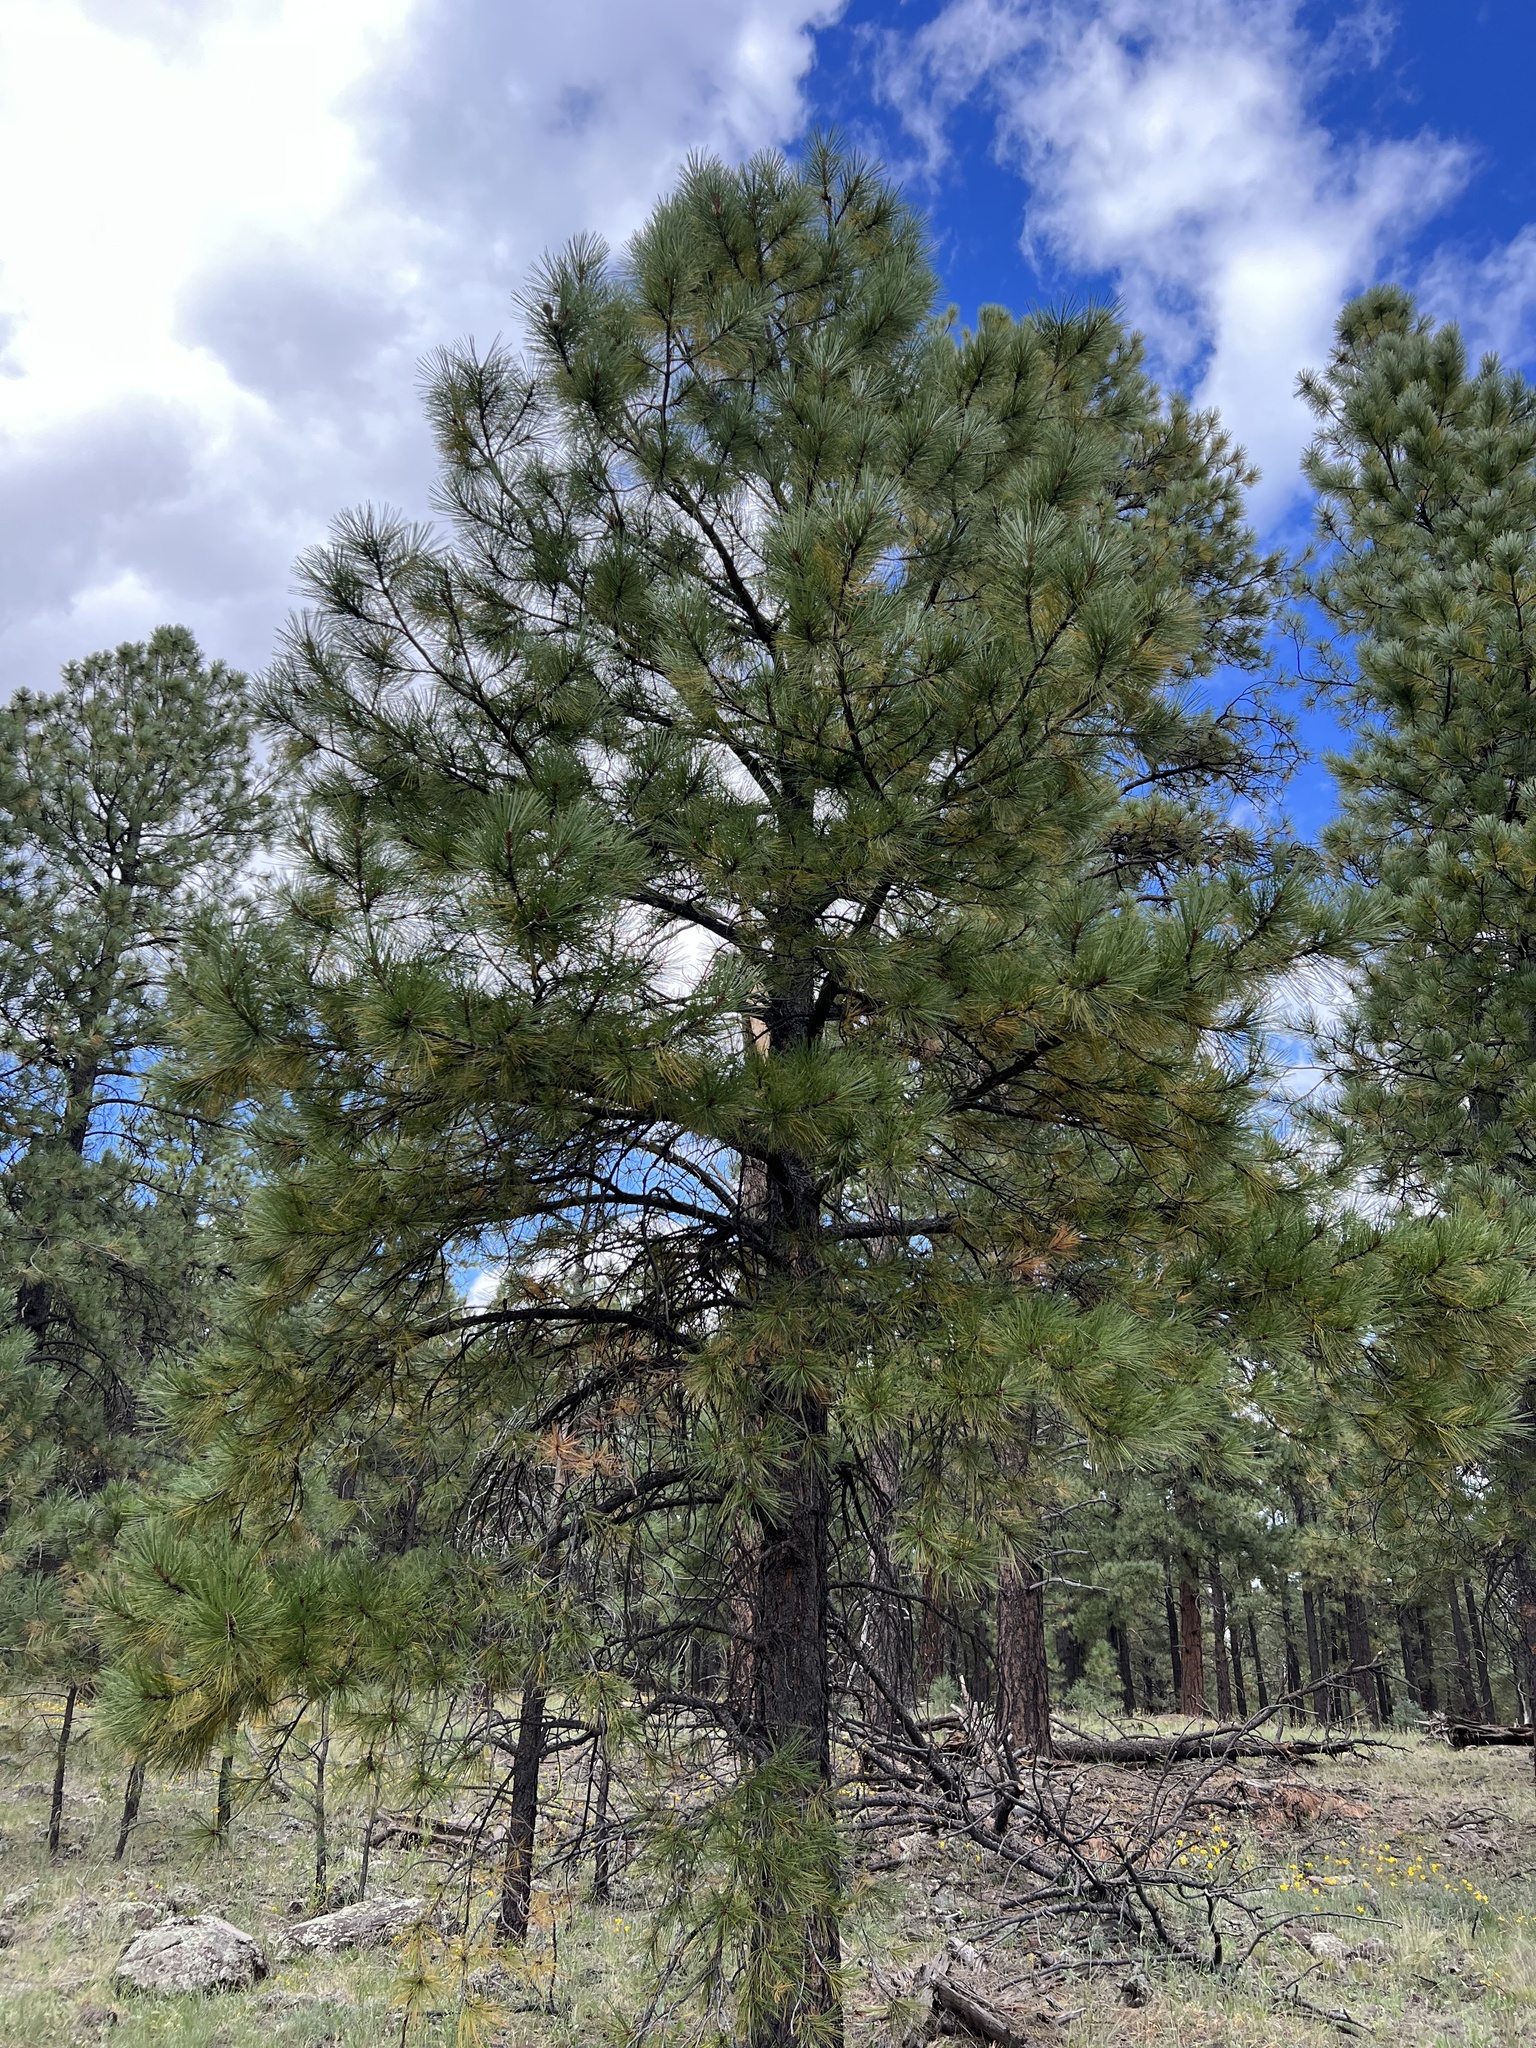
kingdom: Plantae
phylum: Tracheophyta
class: Pinopsida
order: Pinales
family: Pinaceae
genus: Pinus
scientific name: Pinus ponderosa
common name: Western yellow-pine
